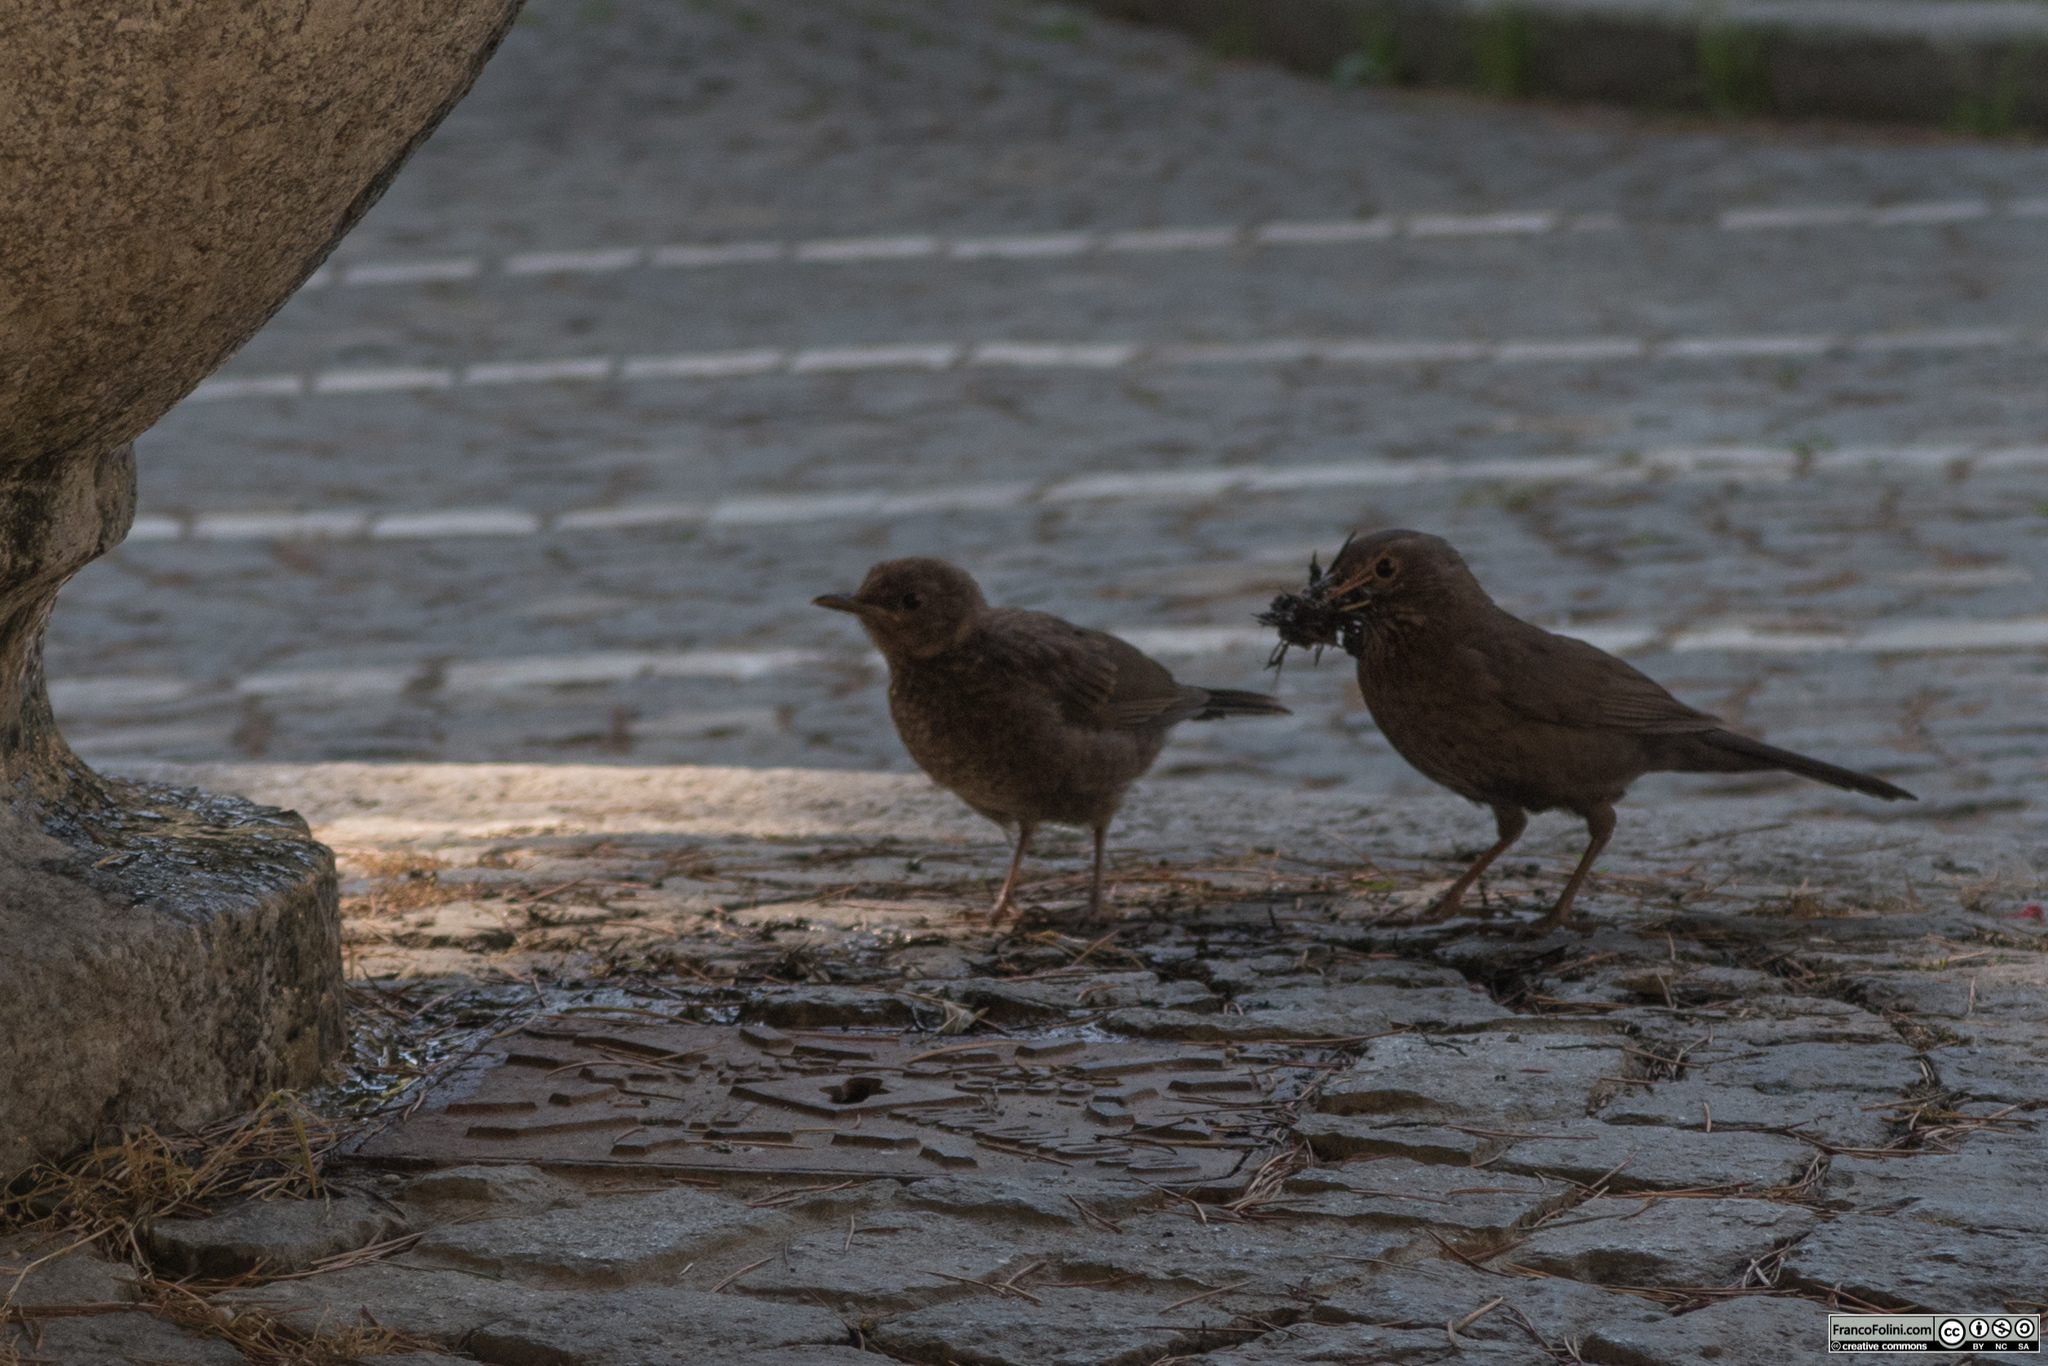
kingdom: Animalia
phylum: Chordata
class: Aves
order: Passeriformes
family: Turdidae
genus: Turdus
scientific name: Turdus merula
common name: Common blackbird
